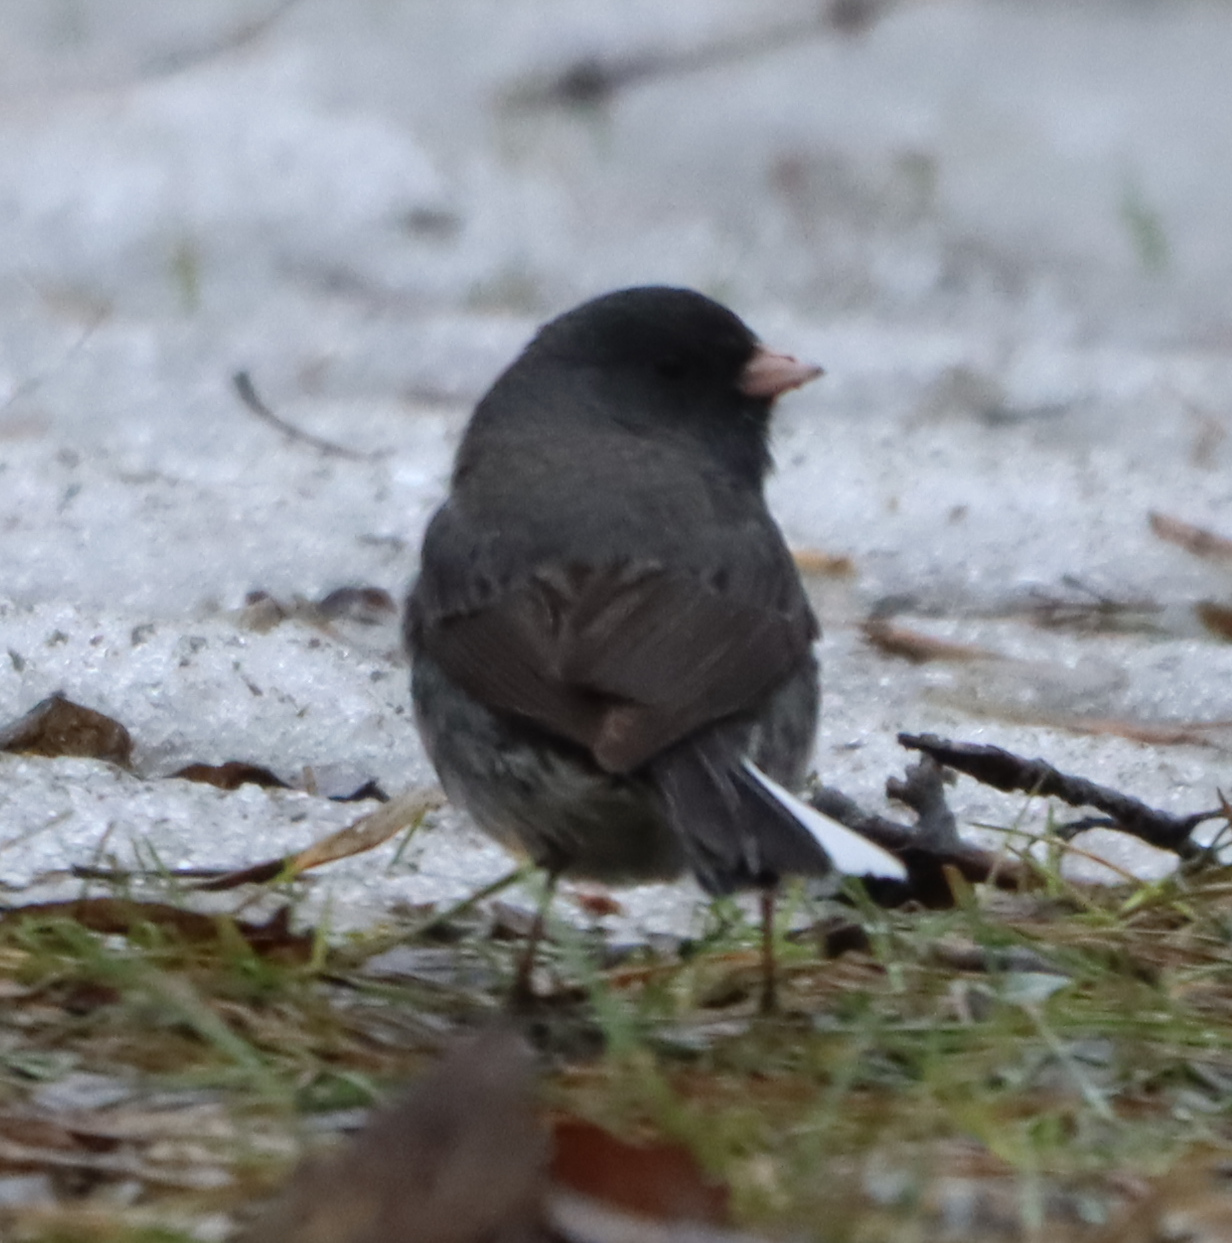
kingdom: Animalia
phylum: Chordata
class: Aves
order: Passeriformes
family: Passerellidae
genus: Junco
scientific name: Junco hyemalis
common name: Dark-eyed junco
